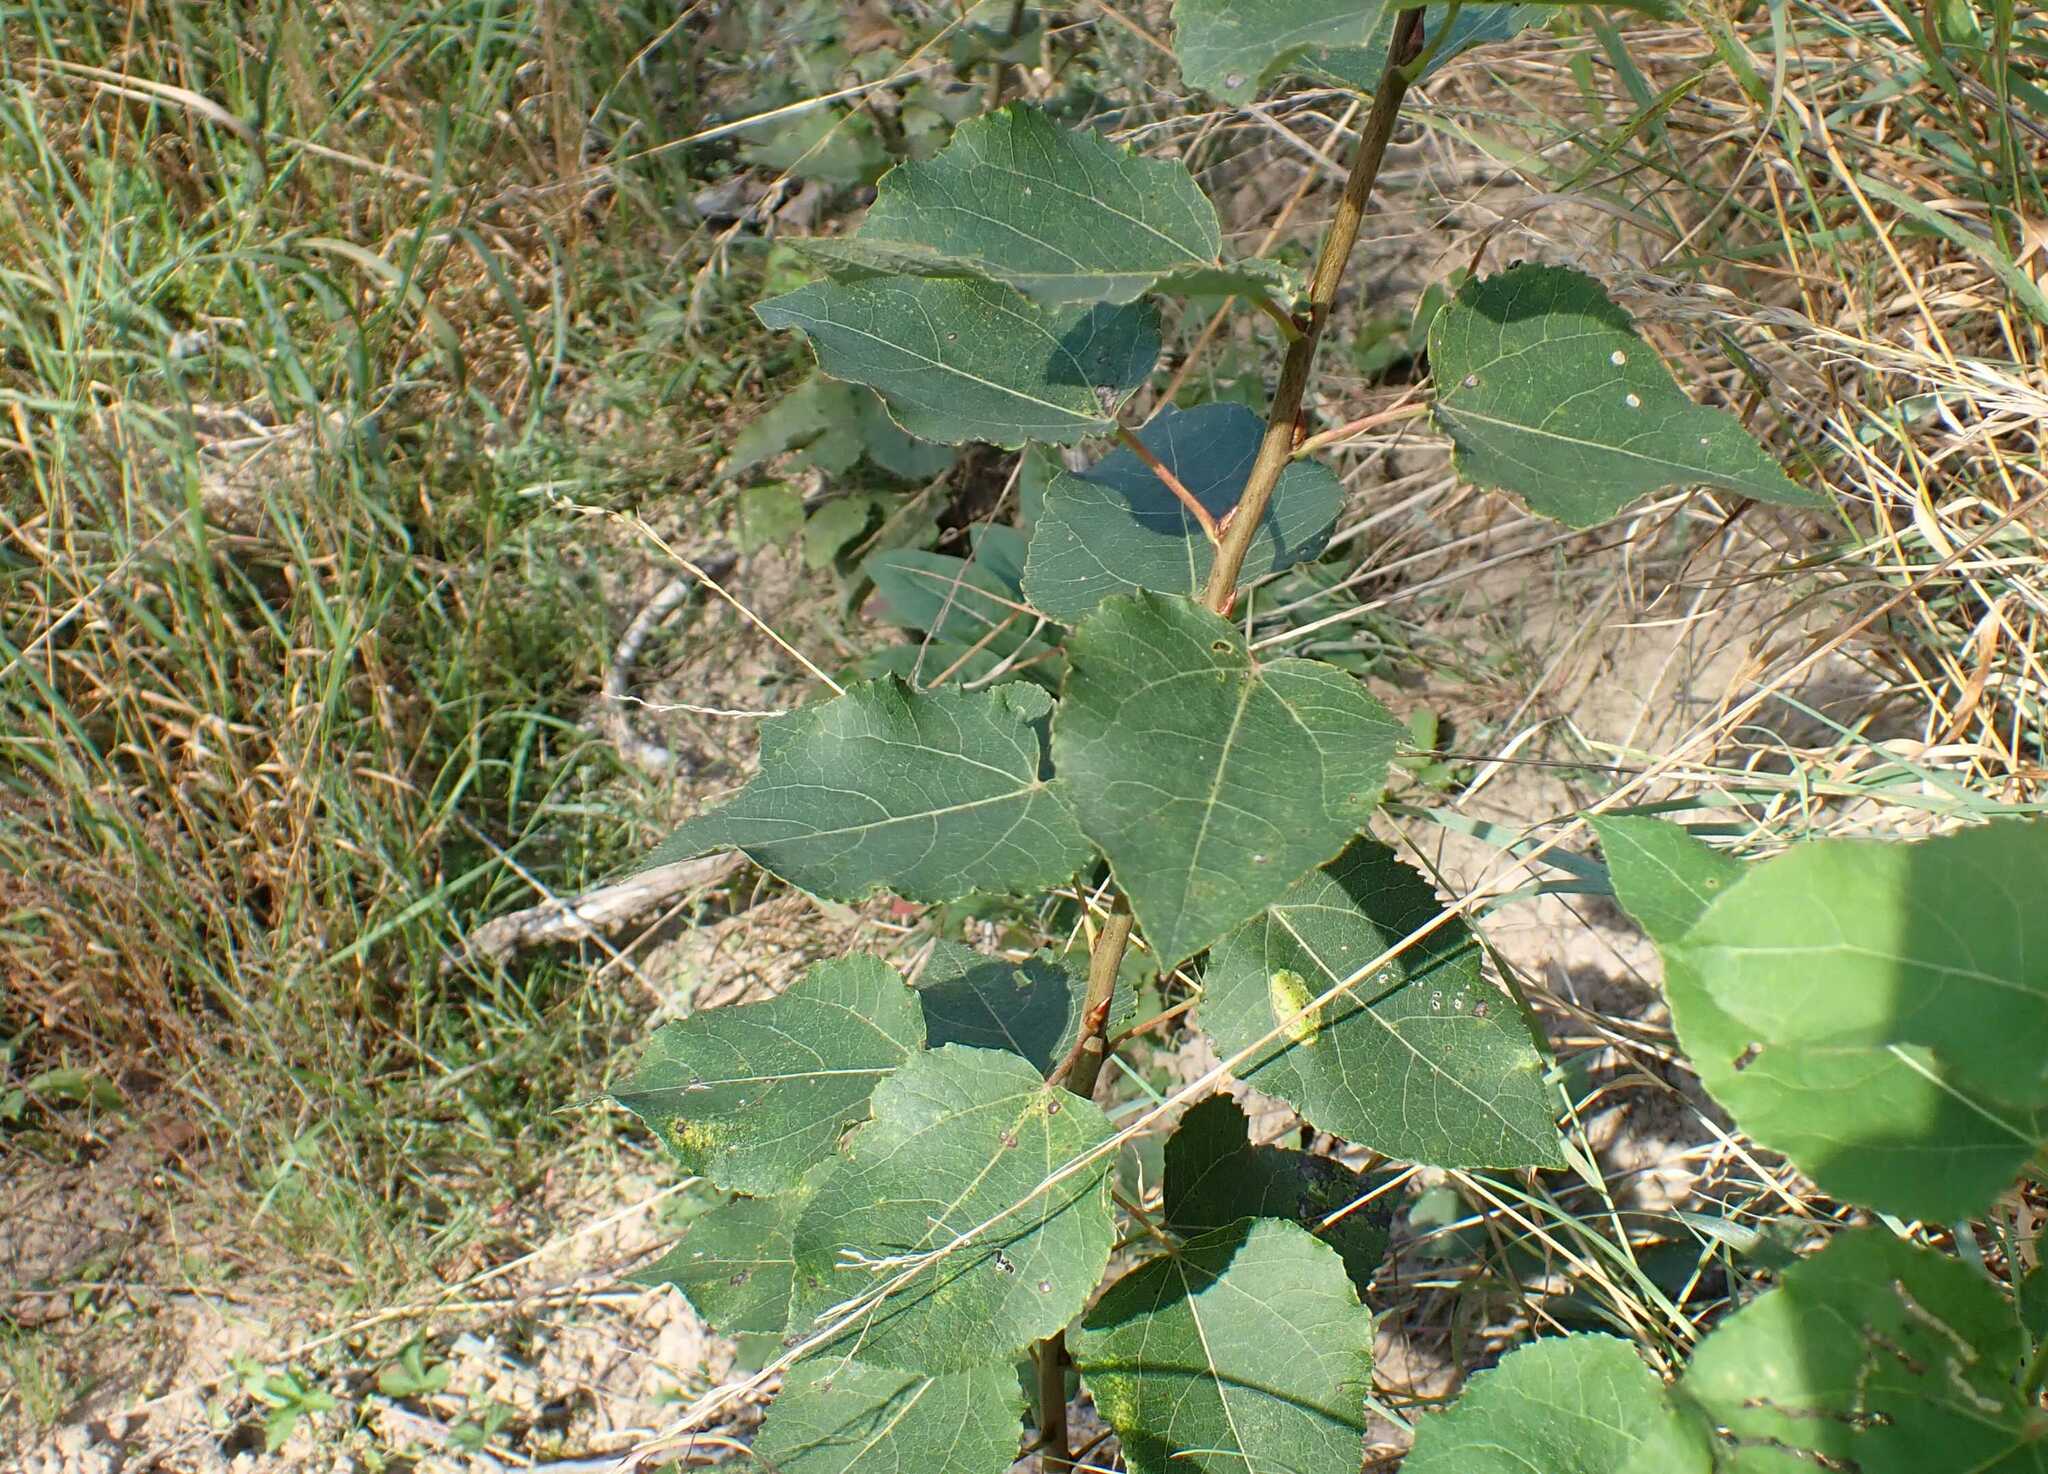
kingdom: Plantae
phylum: Tracheophyta
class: Magnoliopsida
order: Malpighiales
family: Salicaceae
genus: Populus
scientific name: Populus tremula
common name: European aspen
